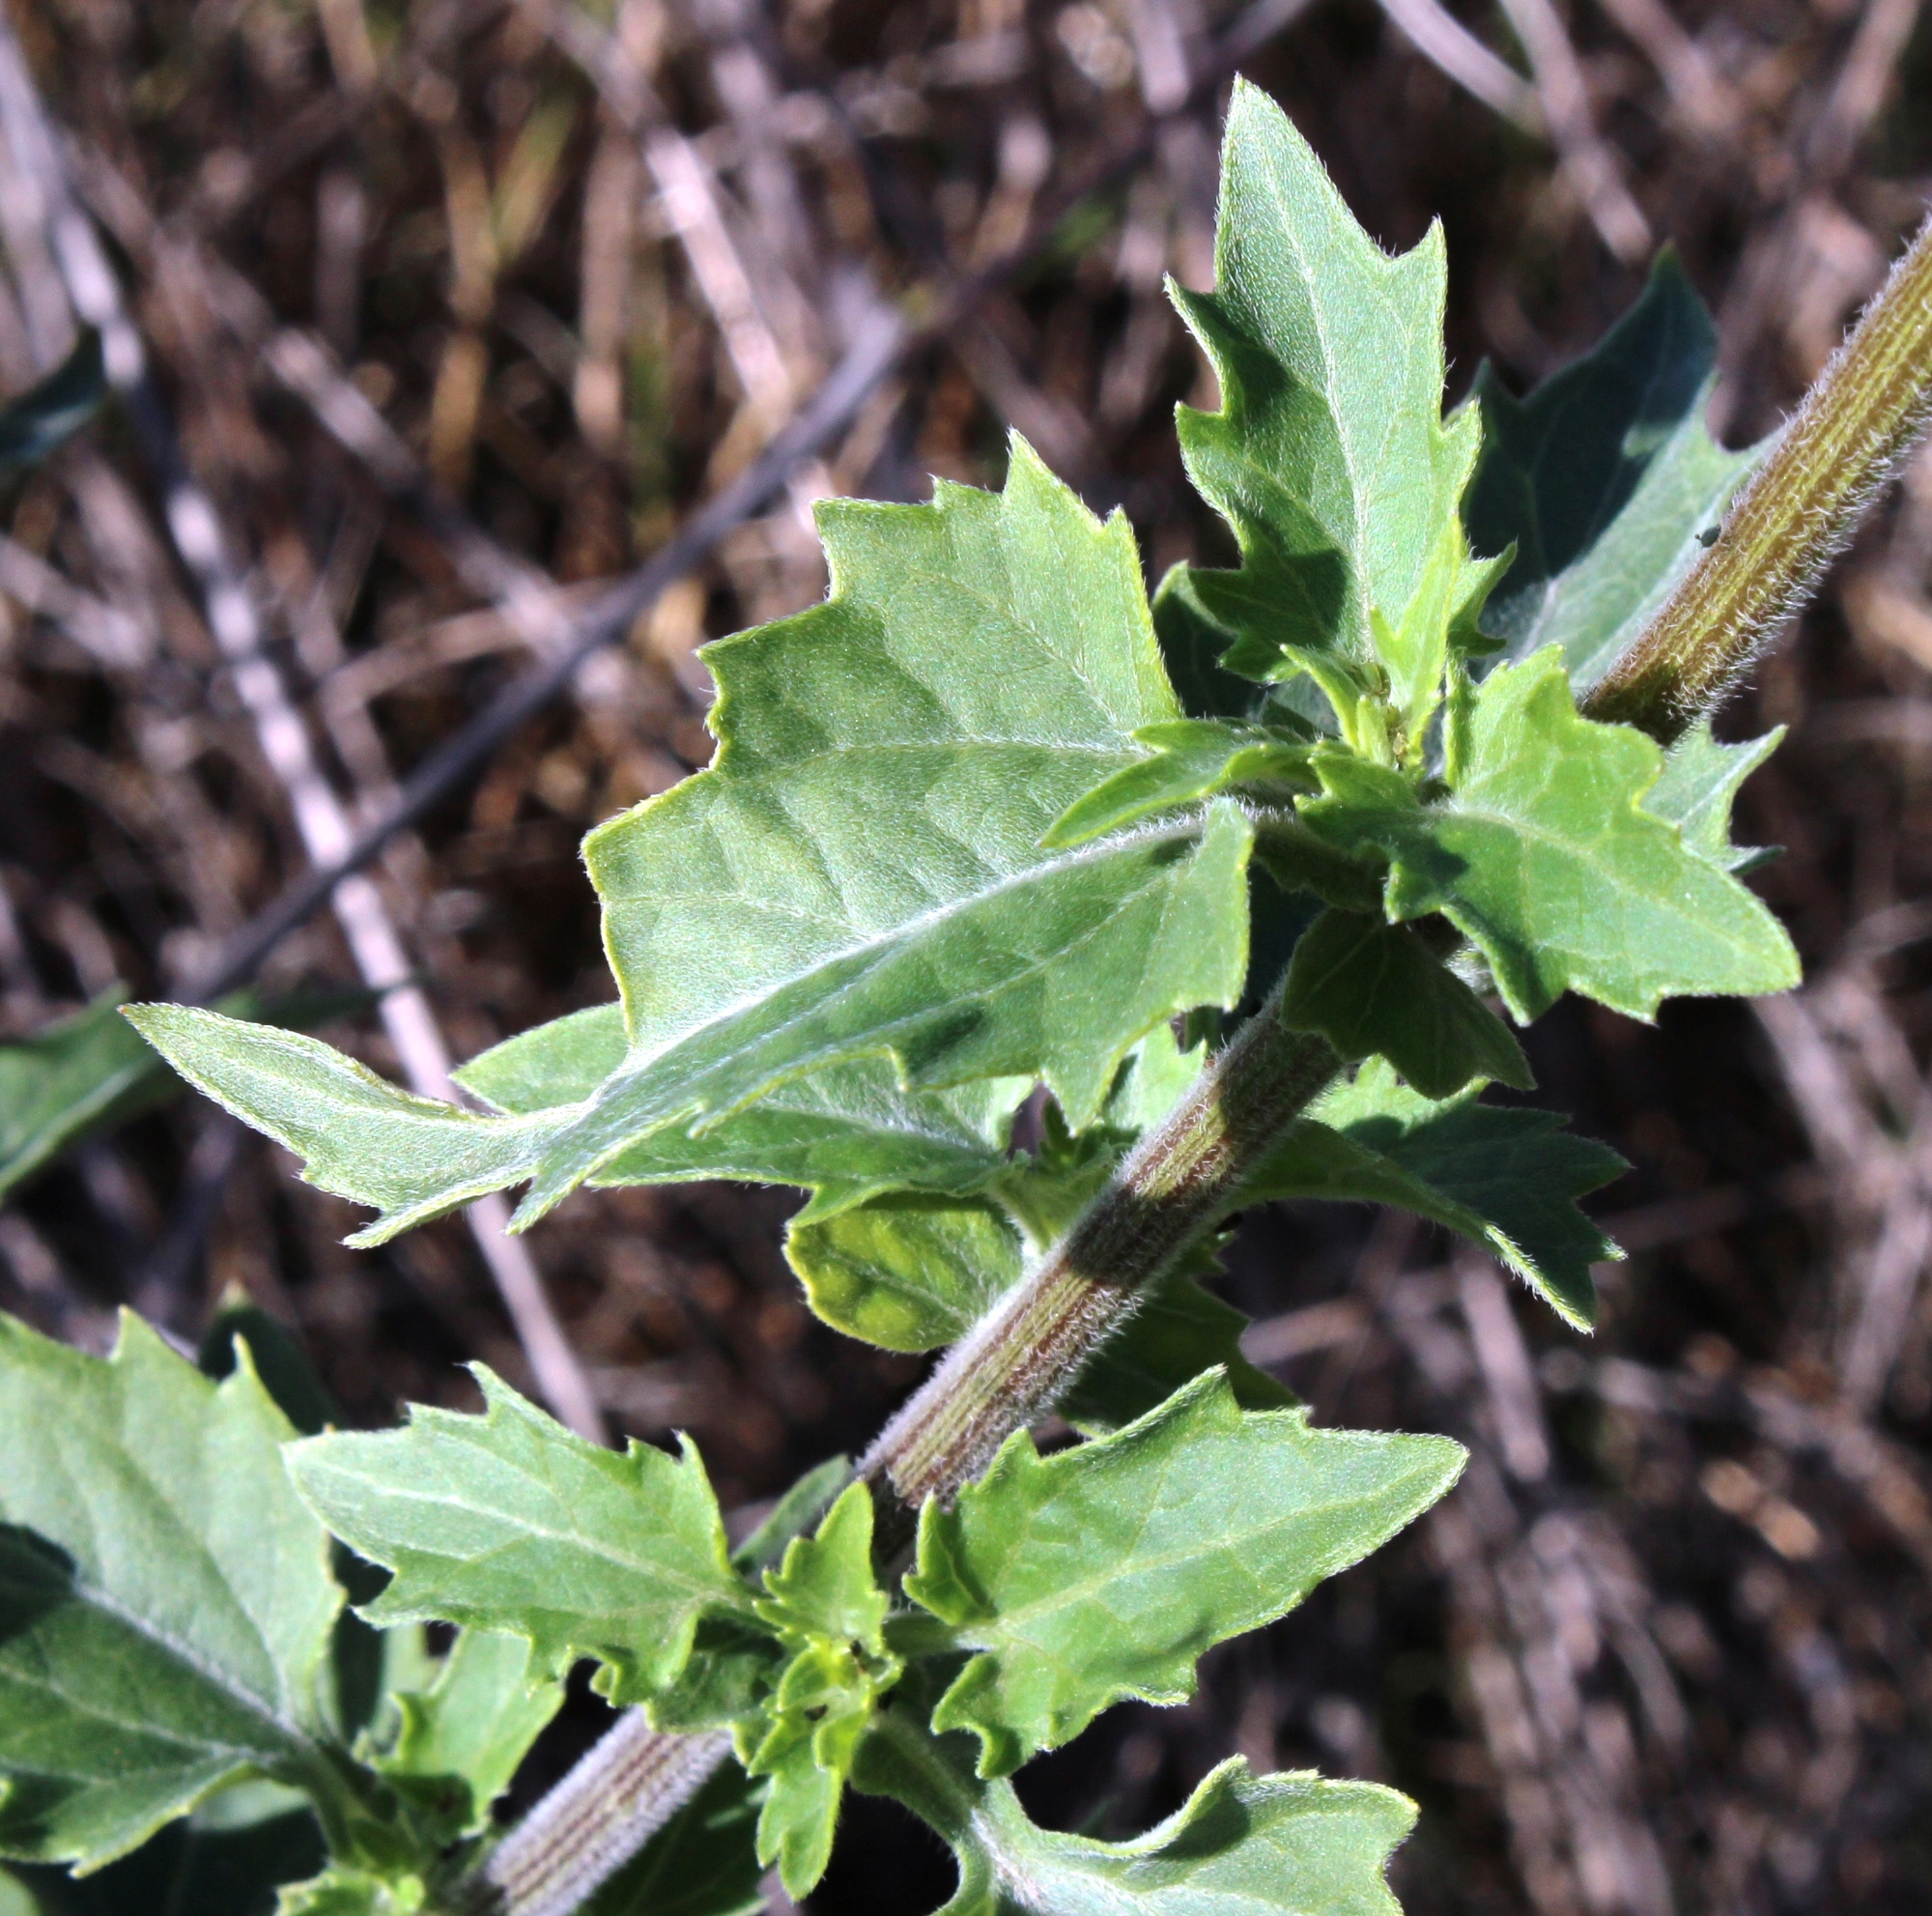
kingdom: Plantae
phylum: Tracheophyta
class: Magnoliopsida
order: Asterales
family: Asteraceae
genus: Verbesina
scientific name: Verbesina encelioides
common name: Golden crownbeard
